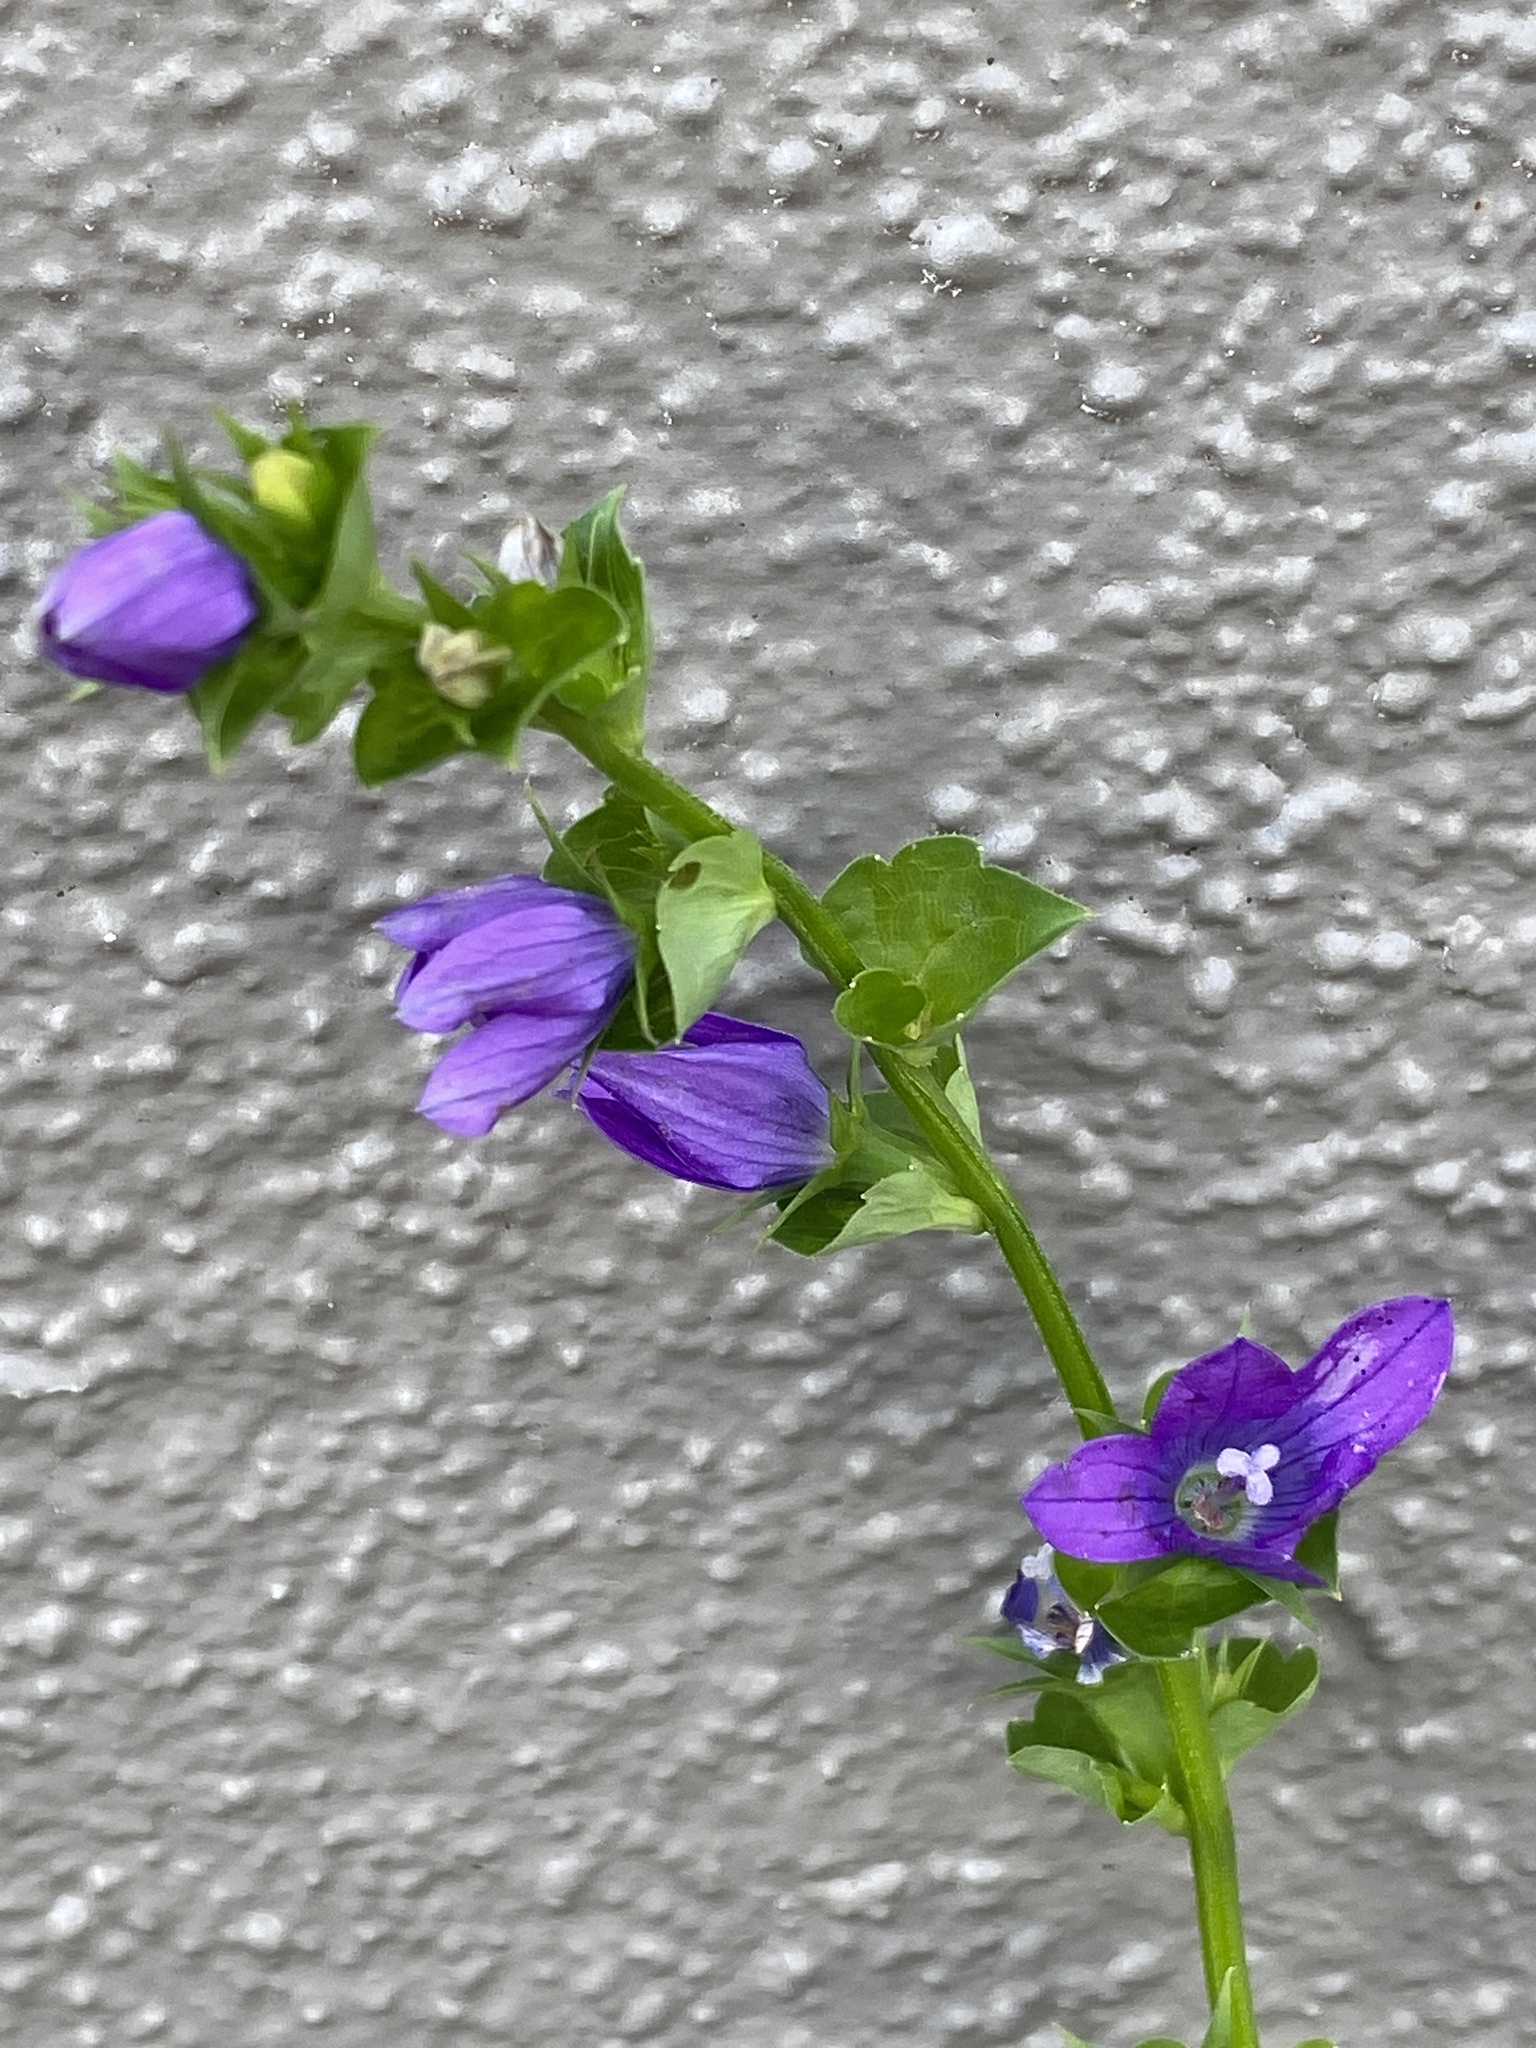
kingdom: Plantae
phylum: Tracheophyta
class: Magnoliopsida
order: Asterales
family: Campanulaceae
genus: Triodanis
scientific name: Triodanis perfoliata
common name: Clasping venus' looking-glass
